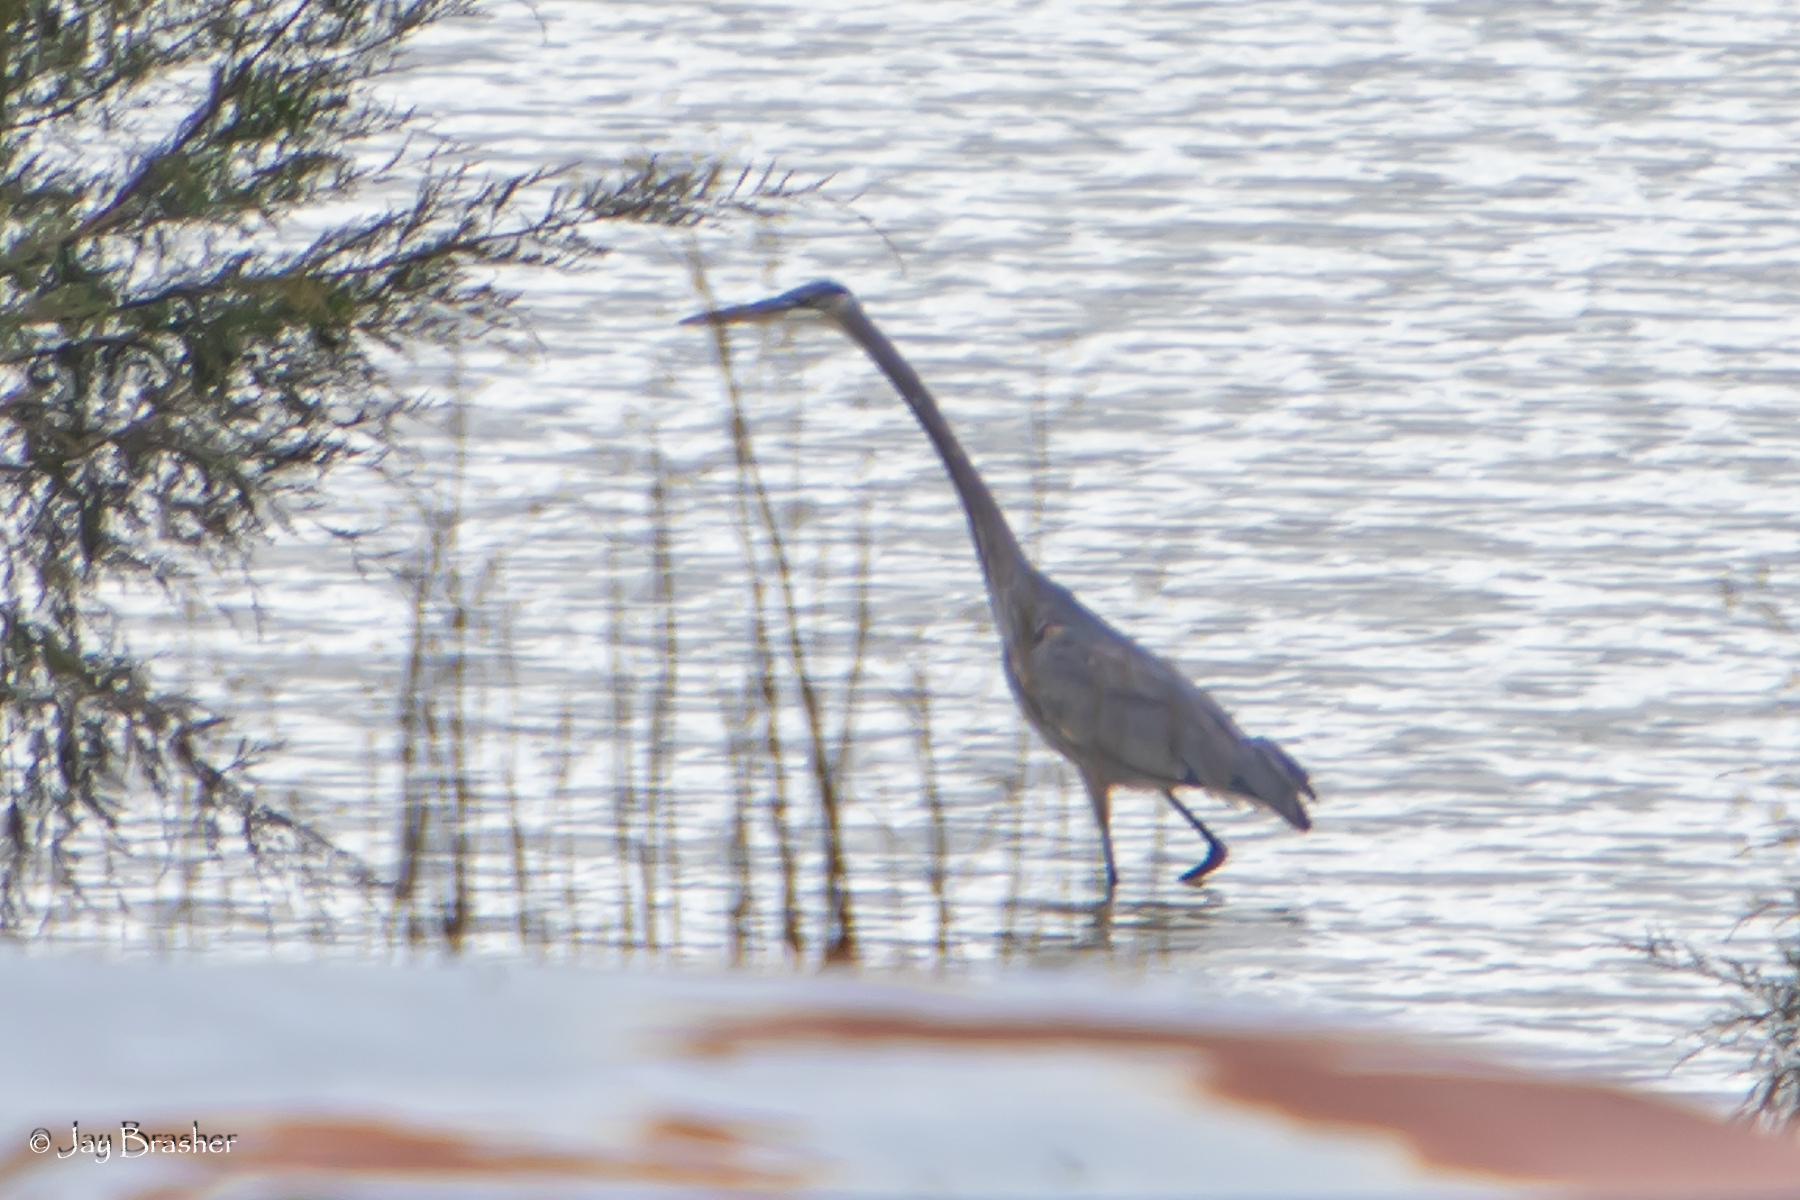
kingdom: Animalia
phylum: Chordata
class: Aves
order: Pelecaniformes
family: Ardeidae
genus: Ardea
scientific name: Ardea herodias
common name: Great blue heron
